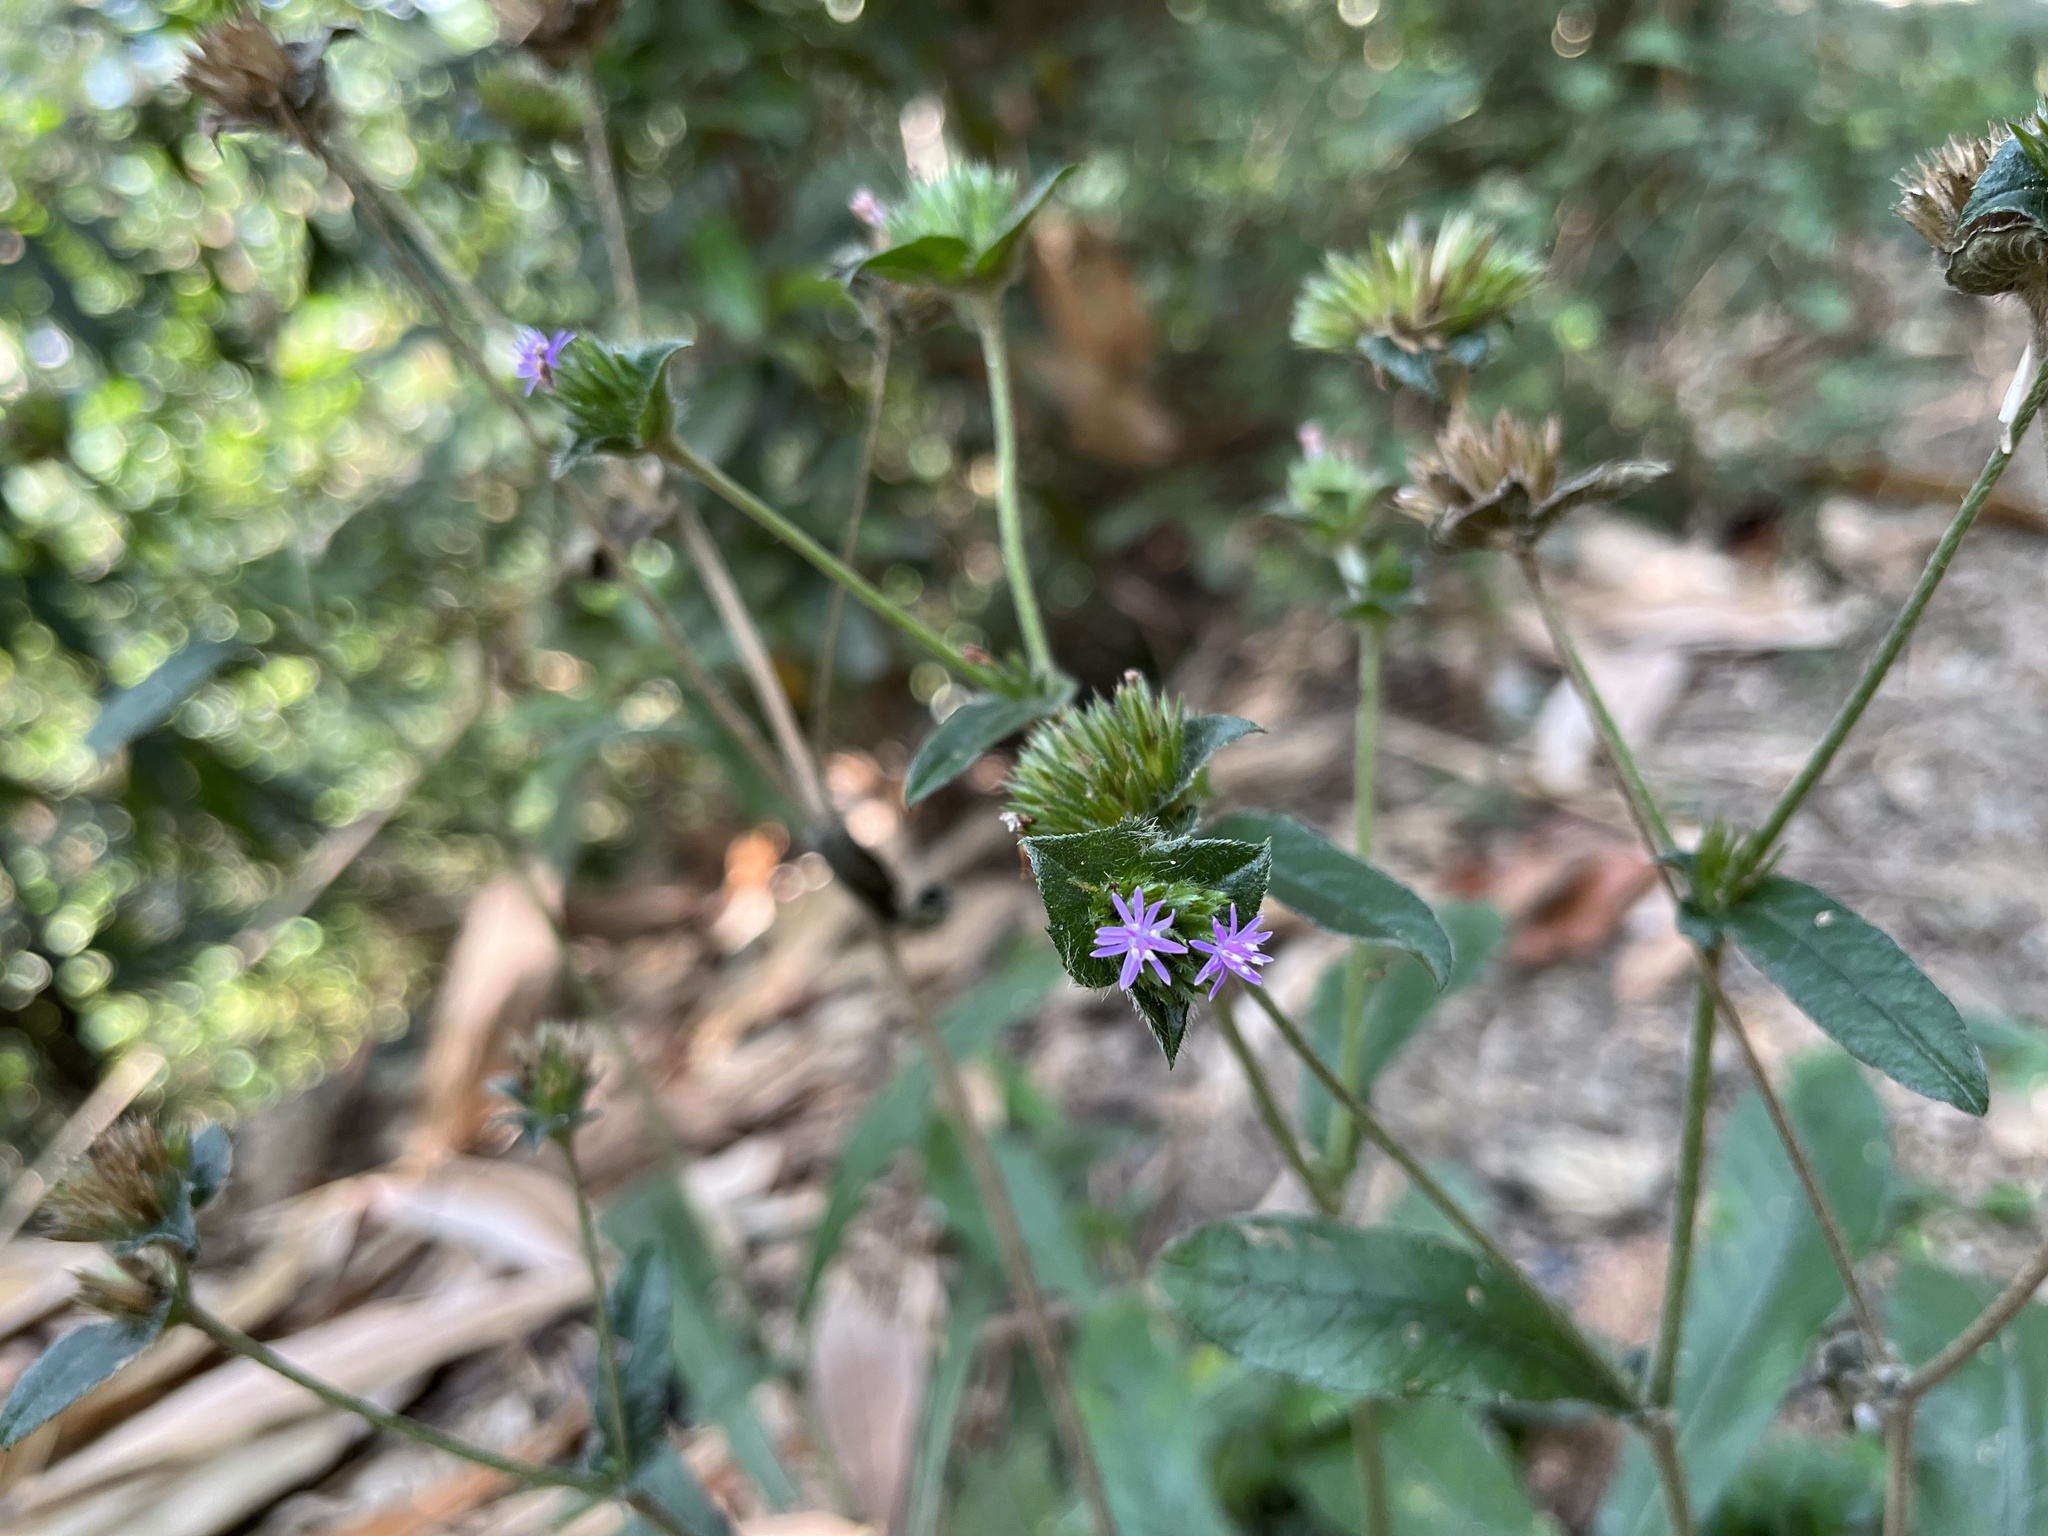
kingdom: Plantae
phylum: Tracheophyta
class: Magnoliopsida
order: Asterales
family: Asteraceae
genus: Elephantopus
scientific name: Elephantopus scaber
